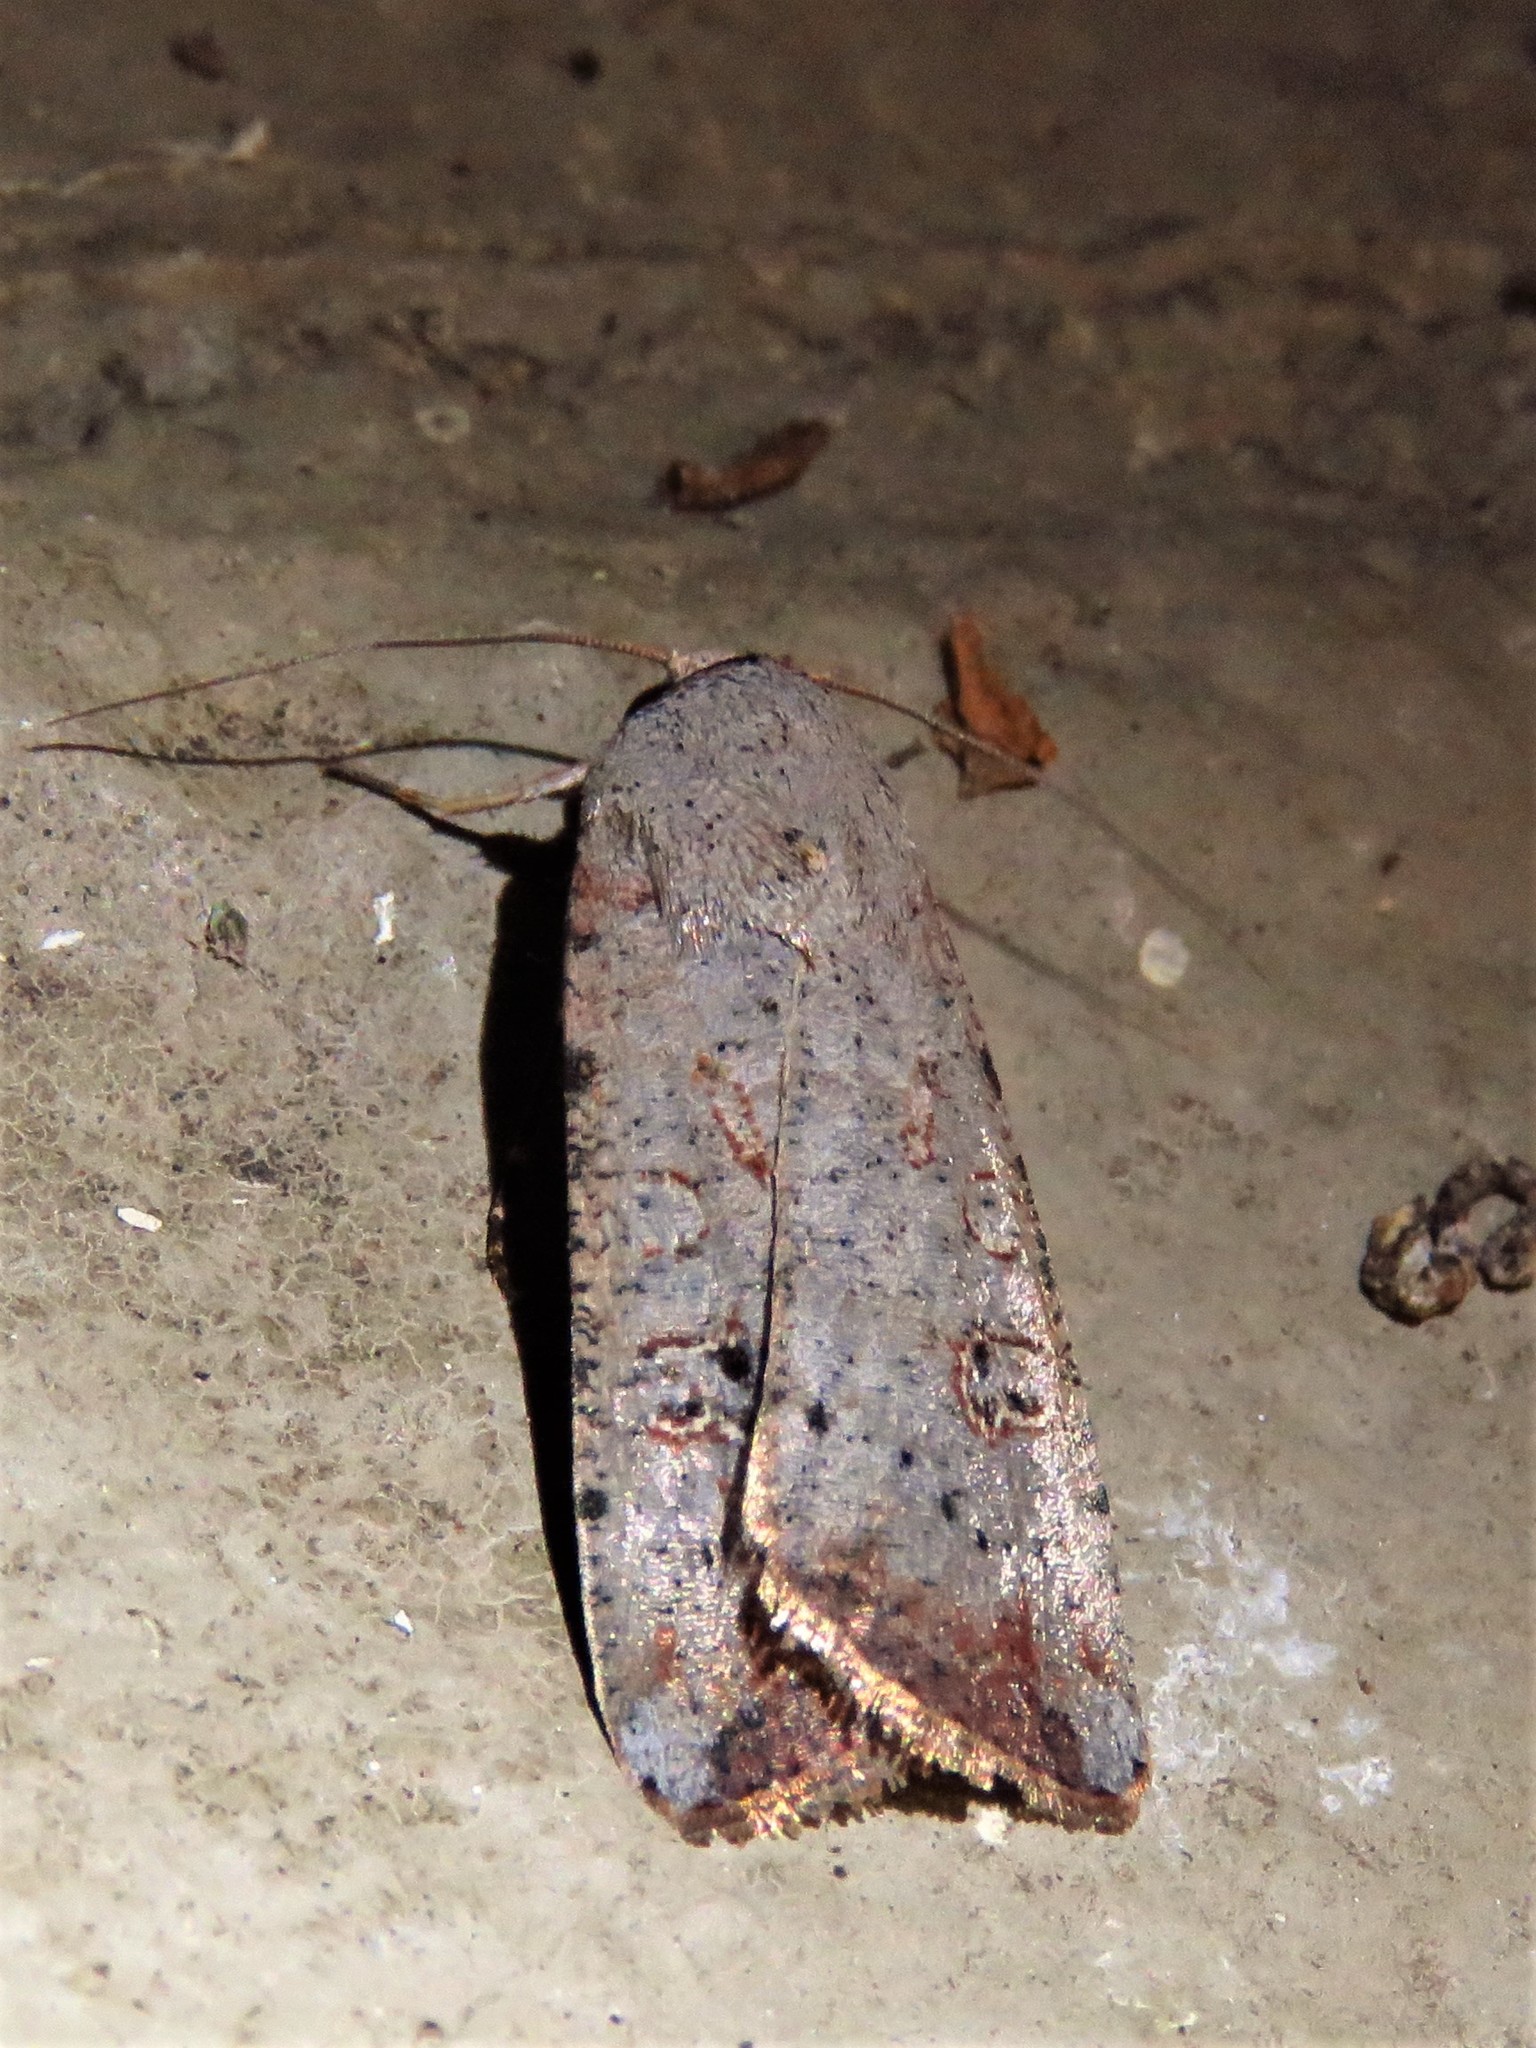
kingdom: Animalia
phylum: Arthropoda
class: Insecta
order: Lepidoptera
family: Noctuidae
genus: Anicla
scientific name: Anicla infecta
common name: Green cutworm
